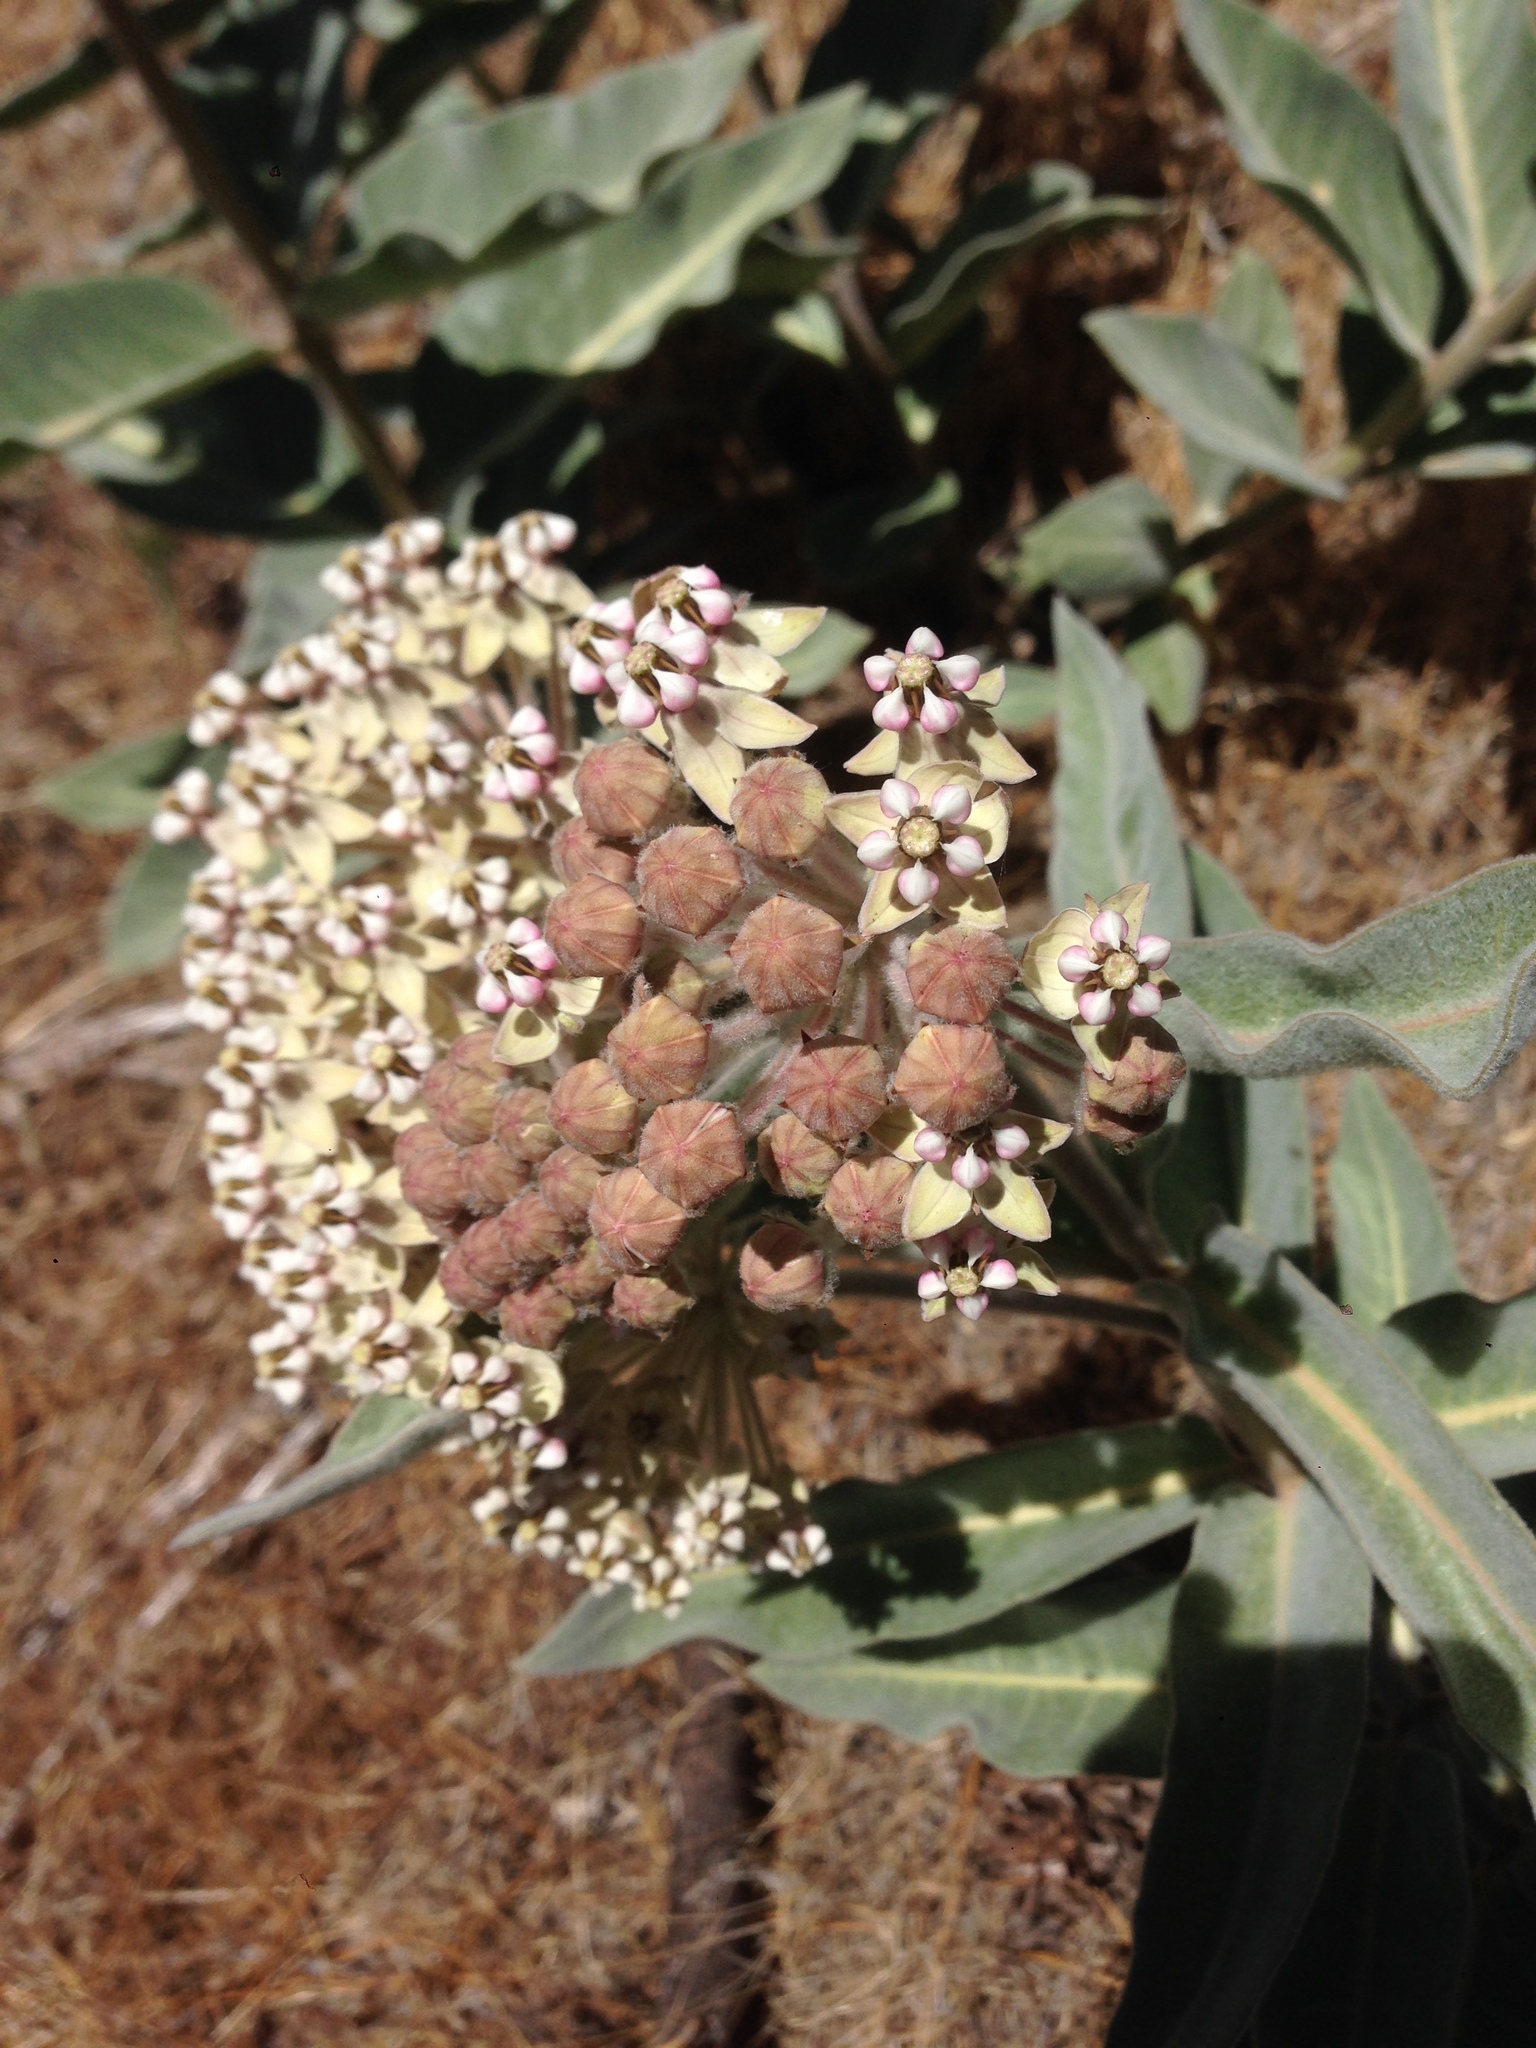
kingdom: Plantae
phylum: Tracheophyta
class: Magnoliopsida
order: Gentianales
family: Apocynaceae
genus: Asclepias
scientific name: Asclepias eriocarpa
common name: Indian milkweed
